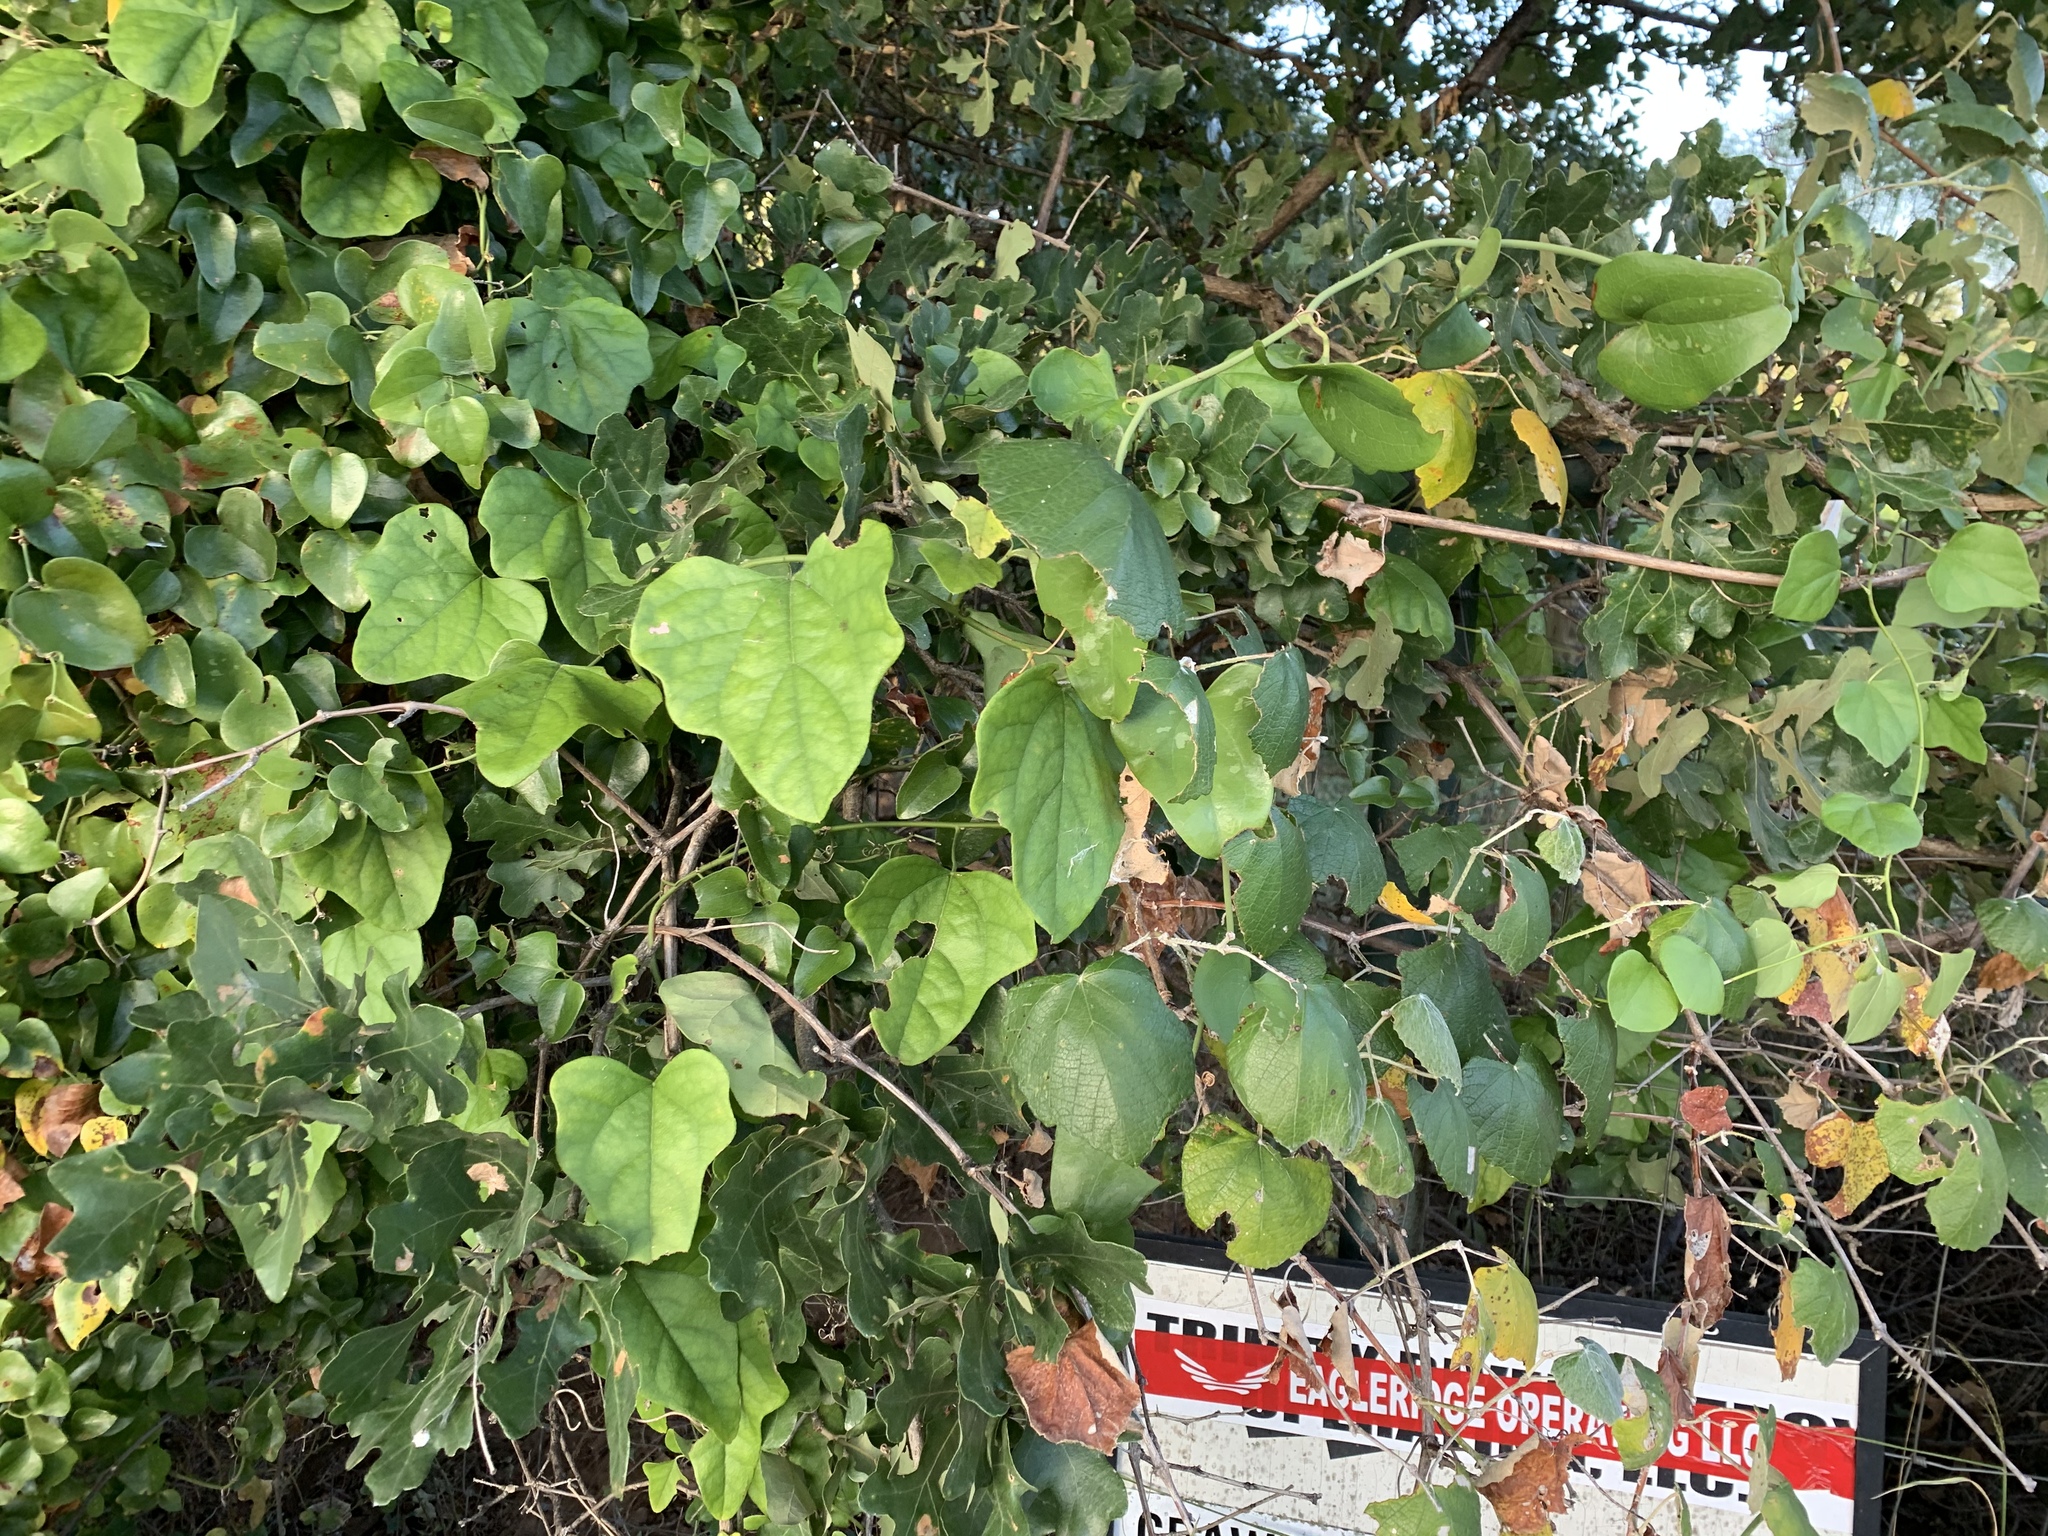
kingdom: Plantae
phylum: Tracheophyta
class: Magnoliopsida
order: Ranunculales
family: Menispermaceae
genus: Cocculus
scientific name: Cocculus carolinus
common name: Carolina moonseed
